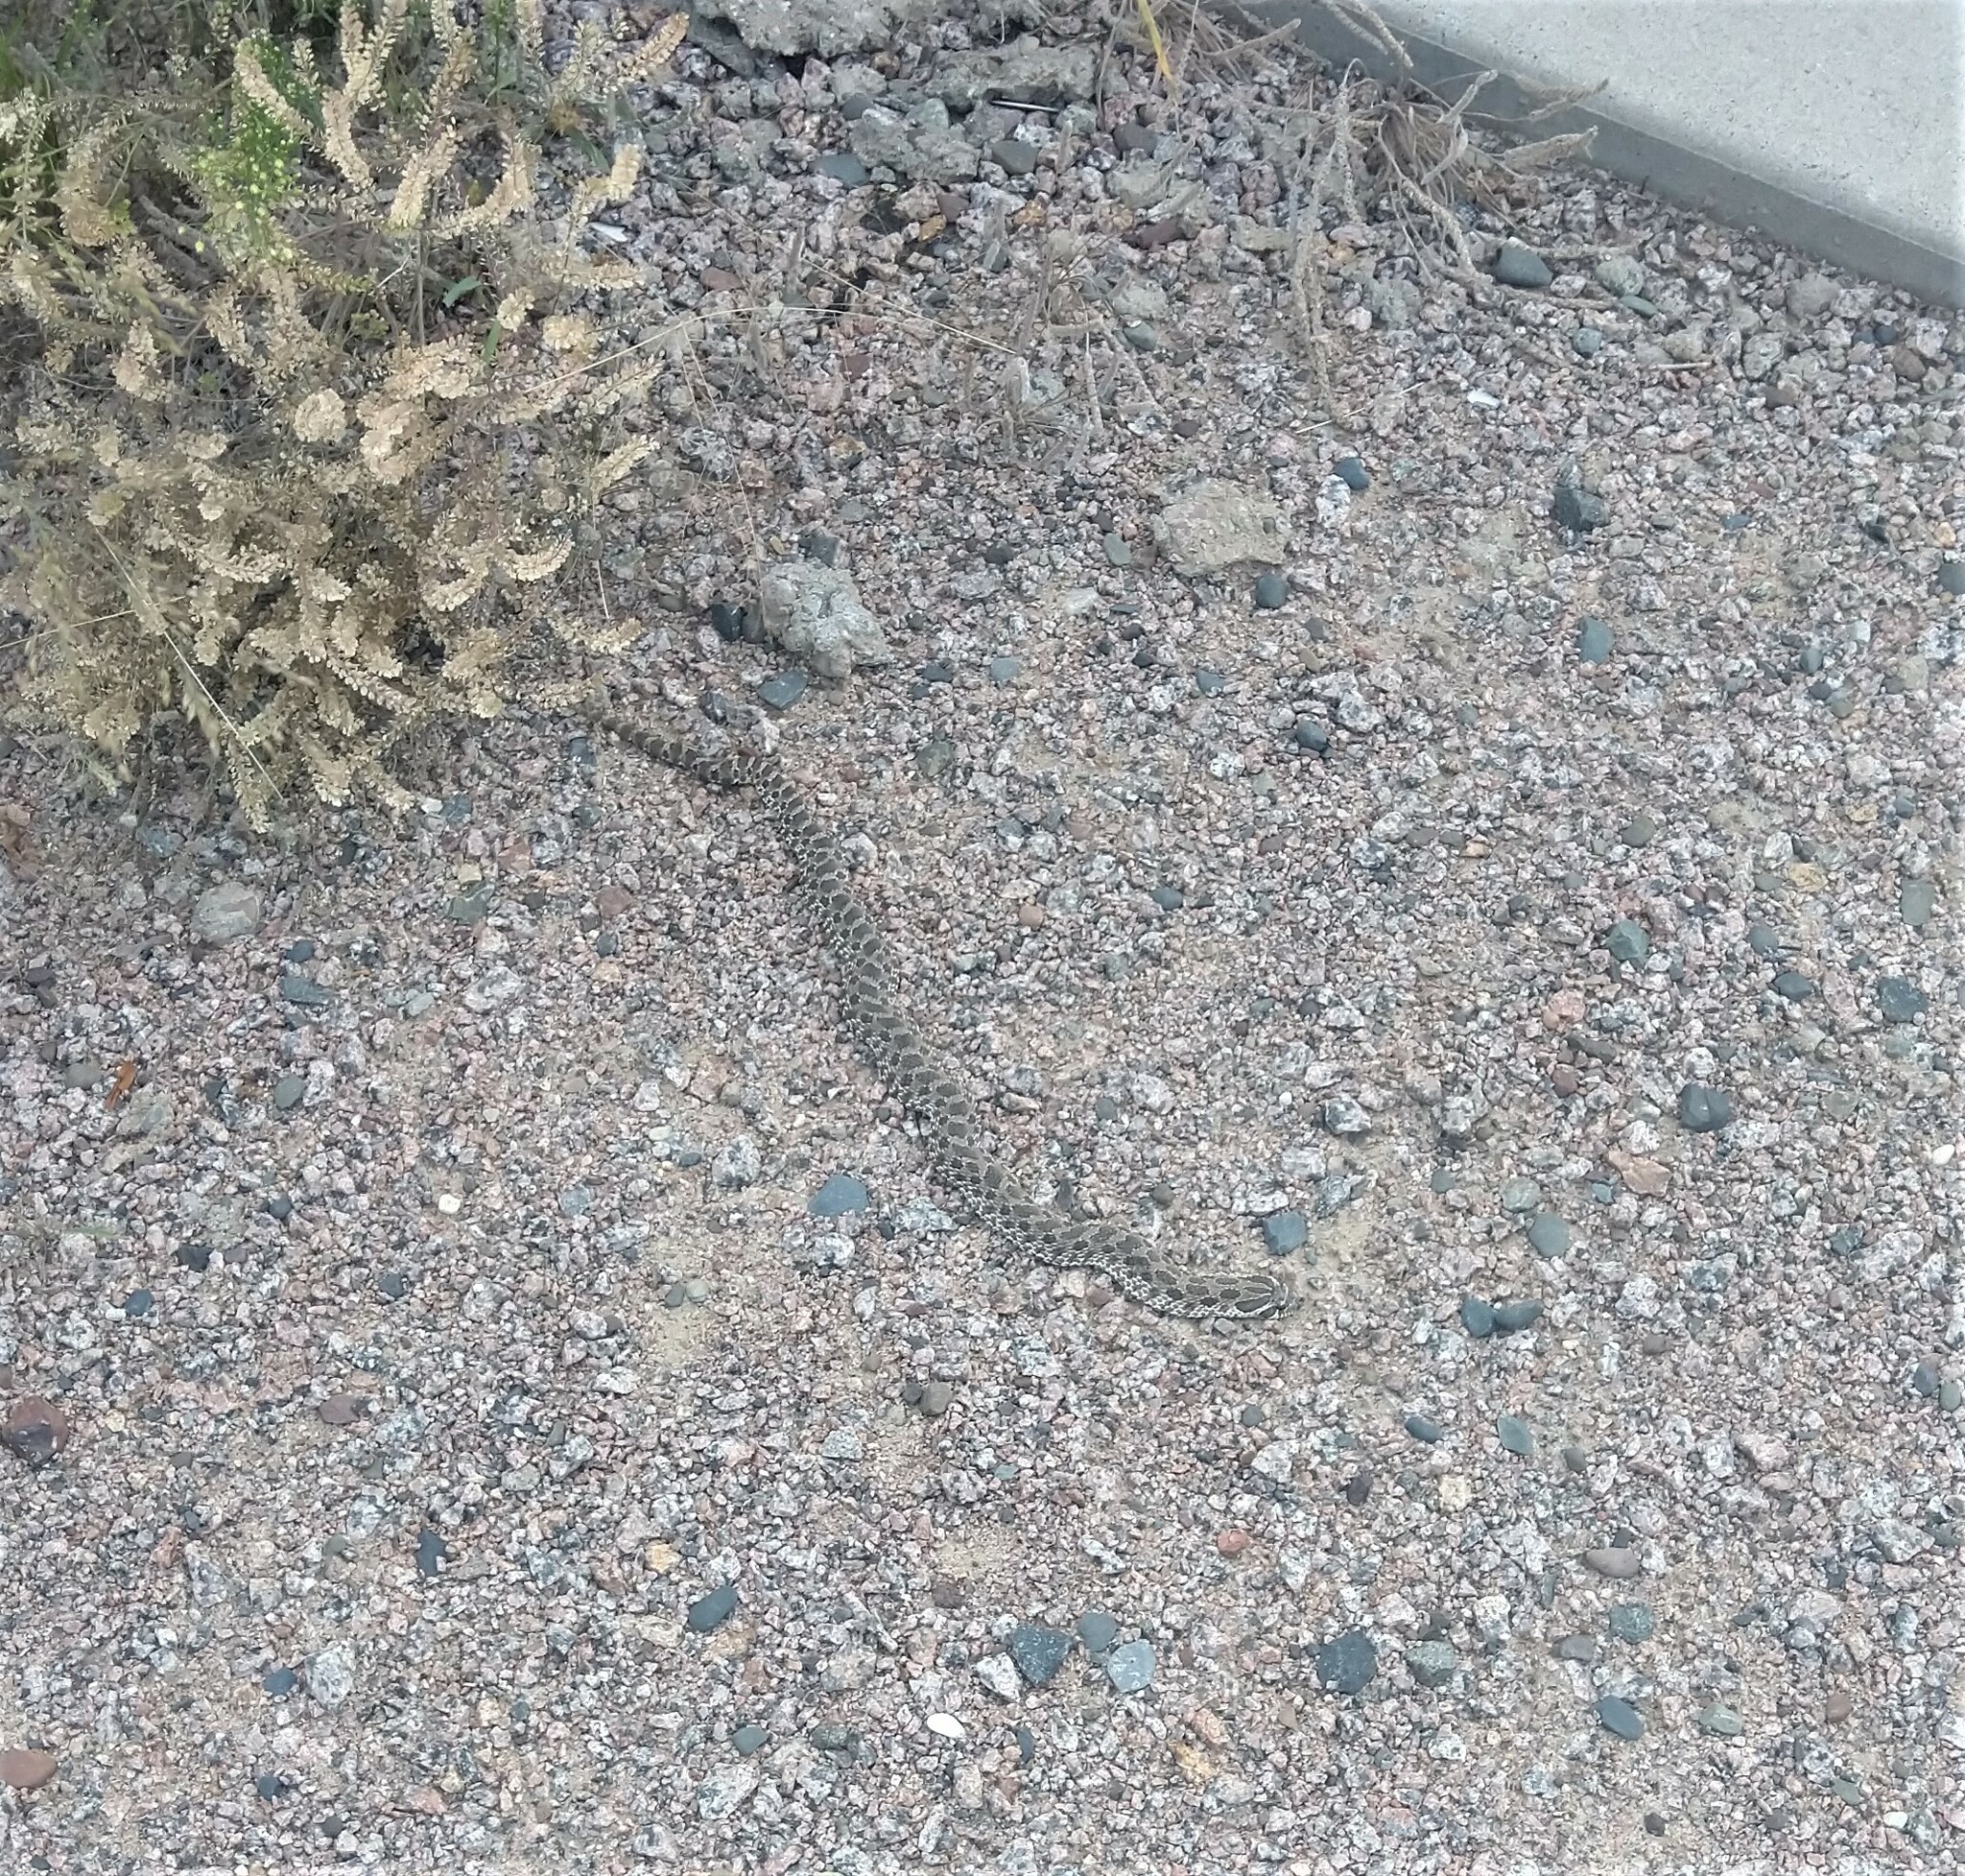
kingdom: Animalia
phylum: Chordata
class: Squamata
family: Colubridae
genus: Heterodon
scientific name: Heterodon nasicus
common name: Western hognose snake
